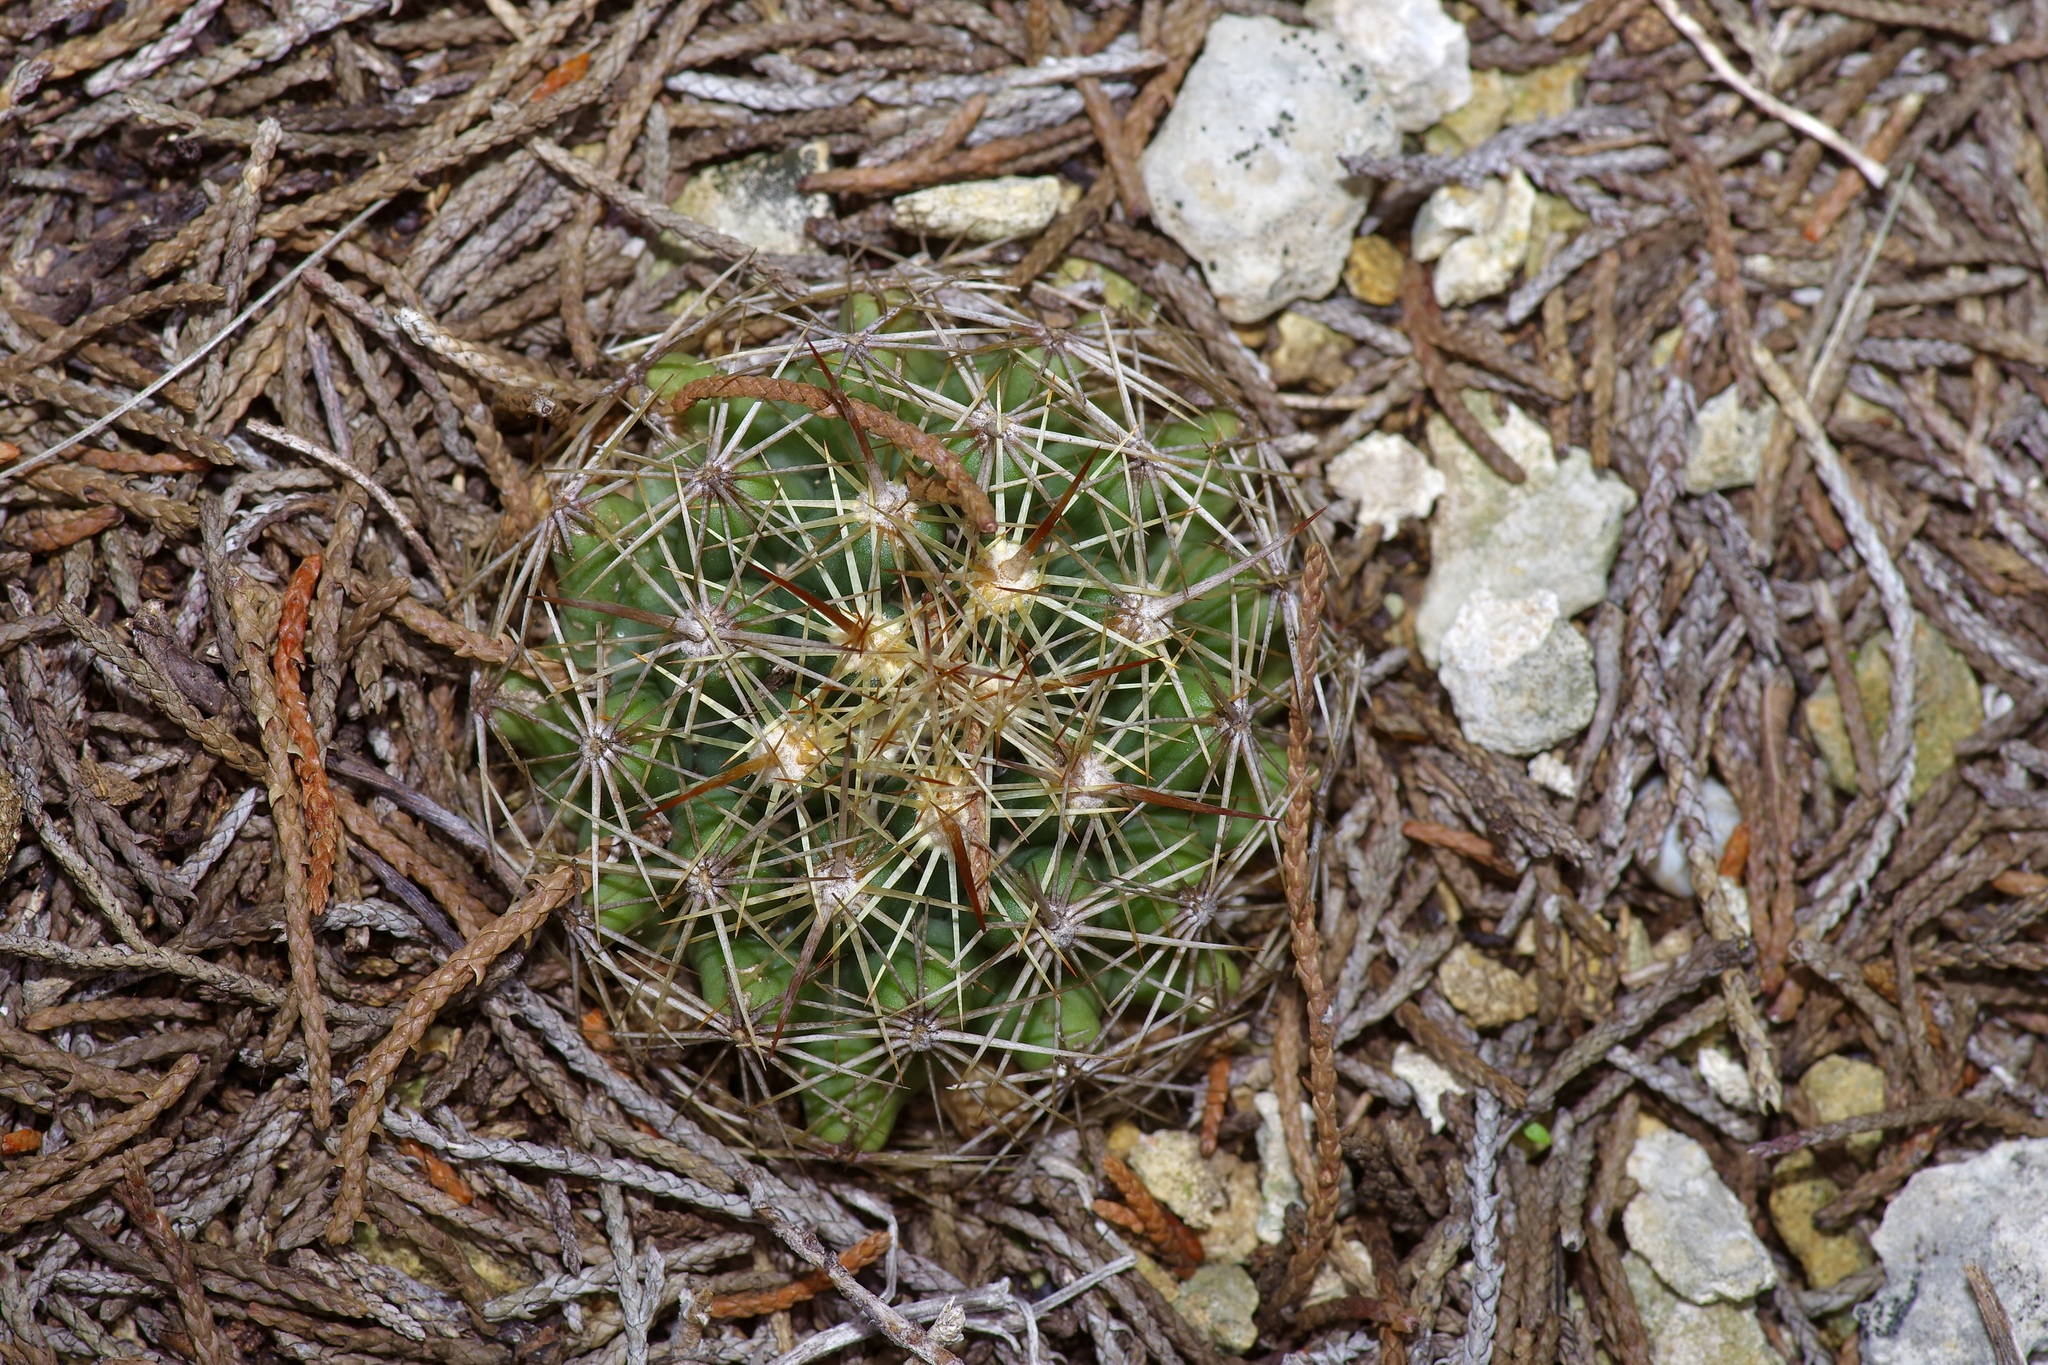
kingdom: Plantae
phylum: Tracheophyta
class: Magnoliopsida
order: Caryophyllales
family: Cactaceae
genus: Coryphantha
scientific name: Coryphantha sulcata
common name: Finger cactus
